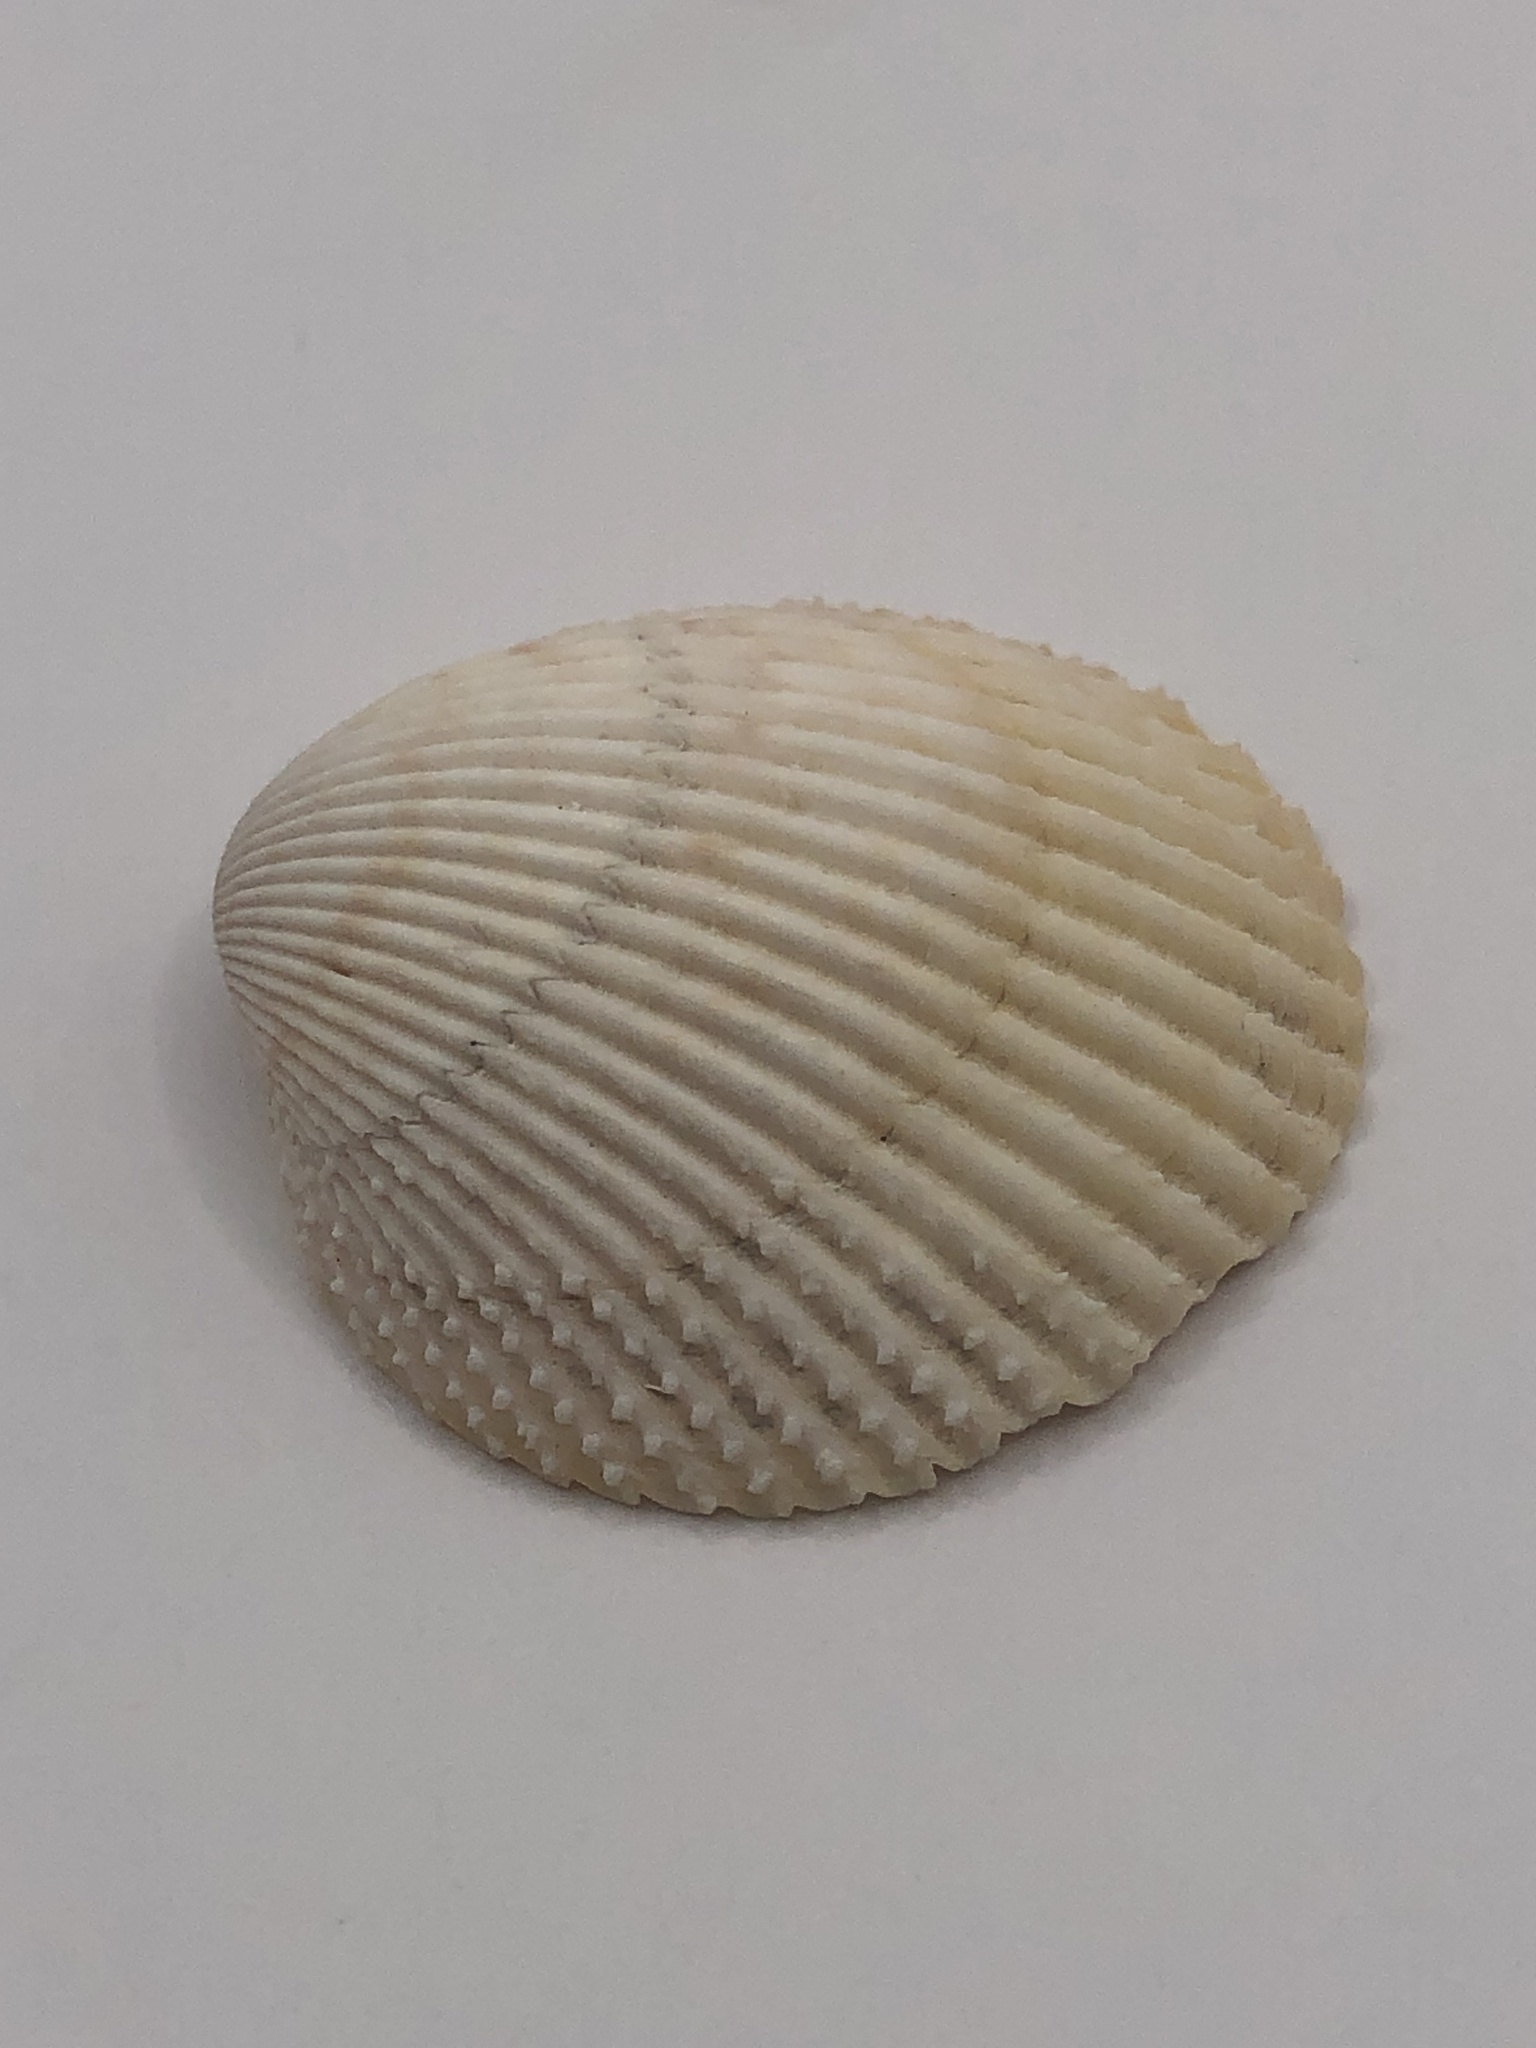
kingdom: Animalia
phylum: Mollusca
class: Bivalvia
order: Cardiida
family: Cardiidae
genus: Dallocardia
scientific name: Dallocardia muricata
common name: Yellow pricklycockle
